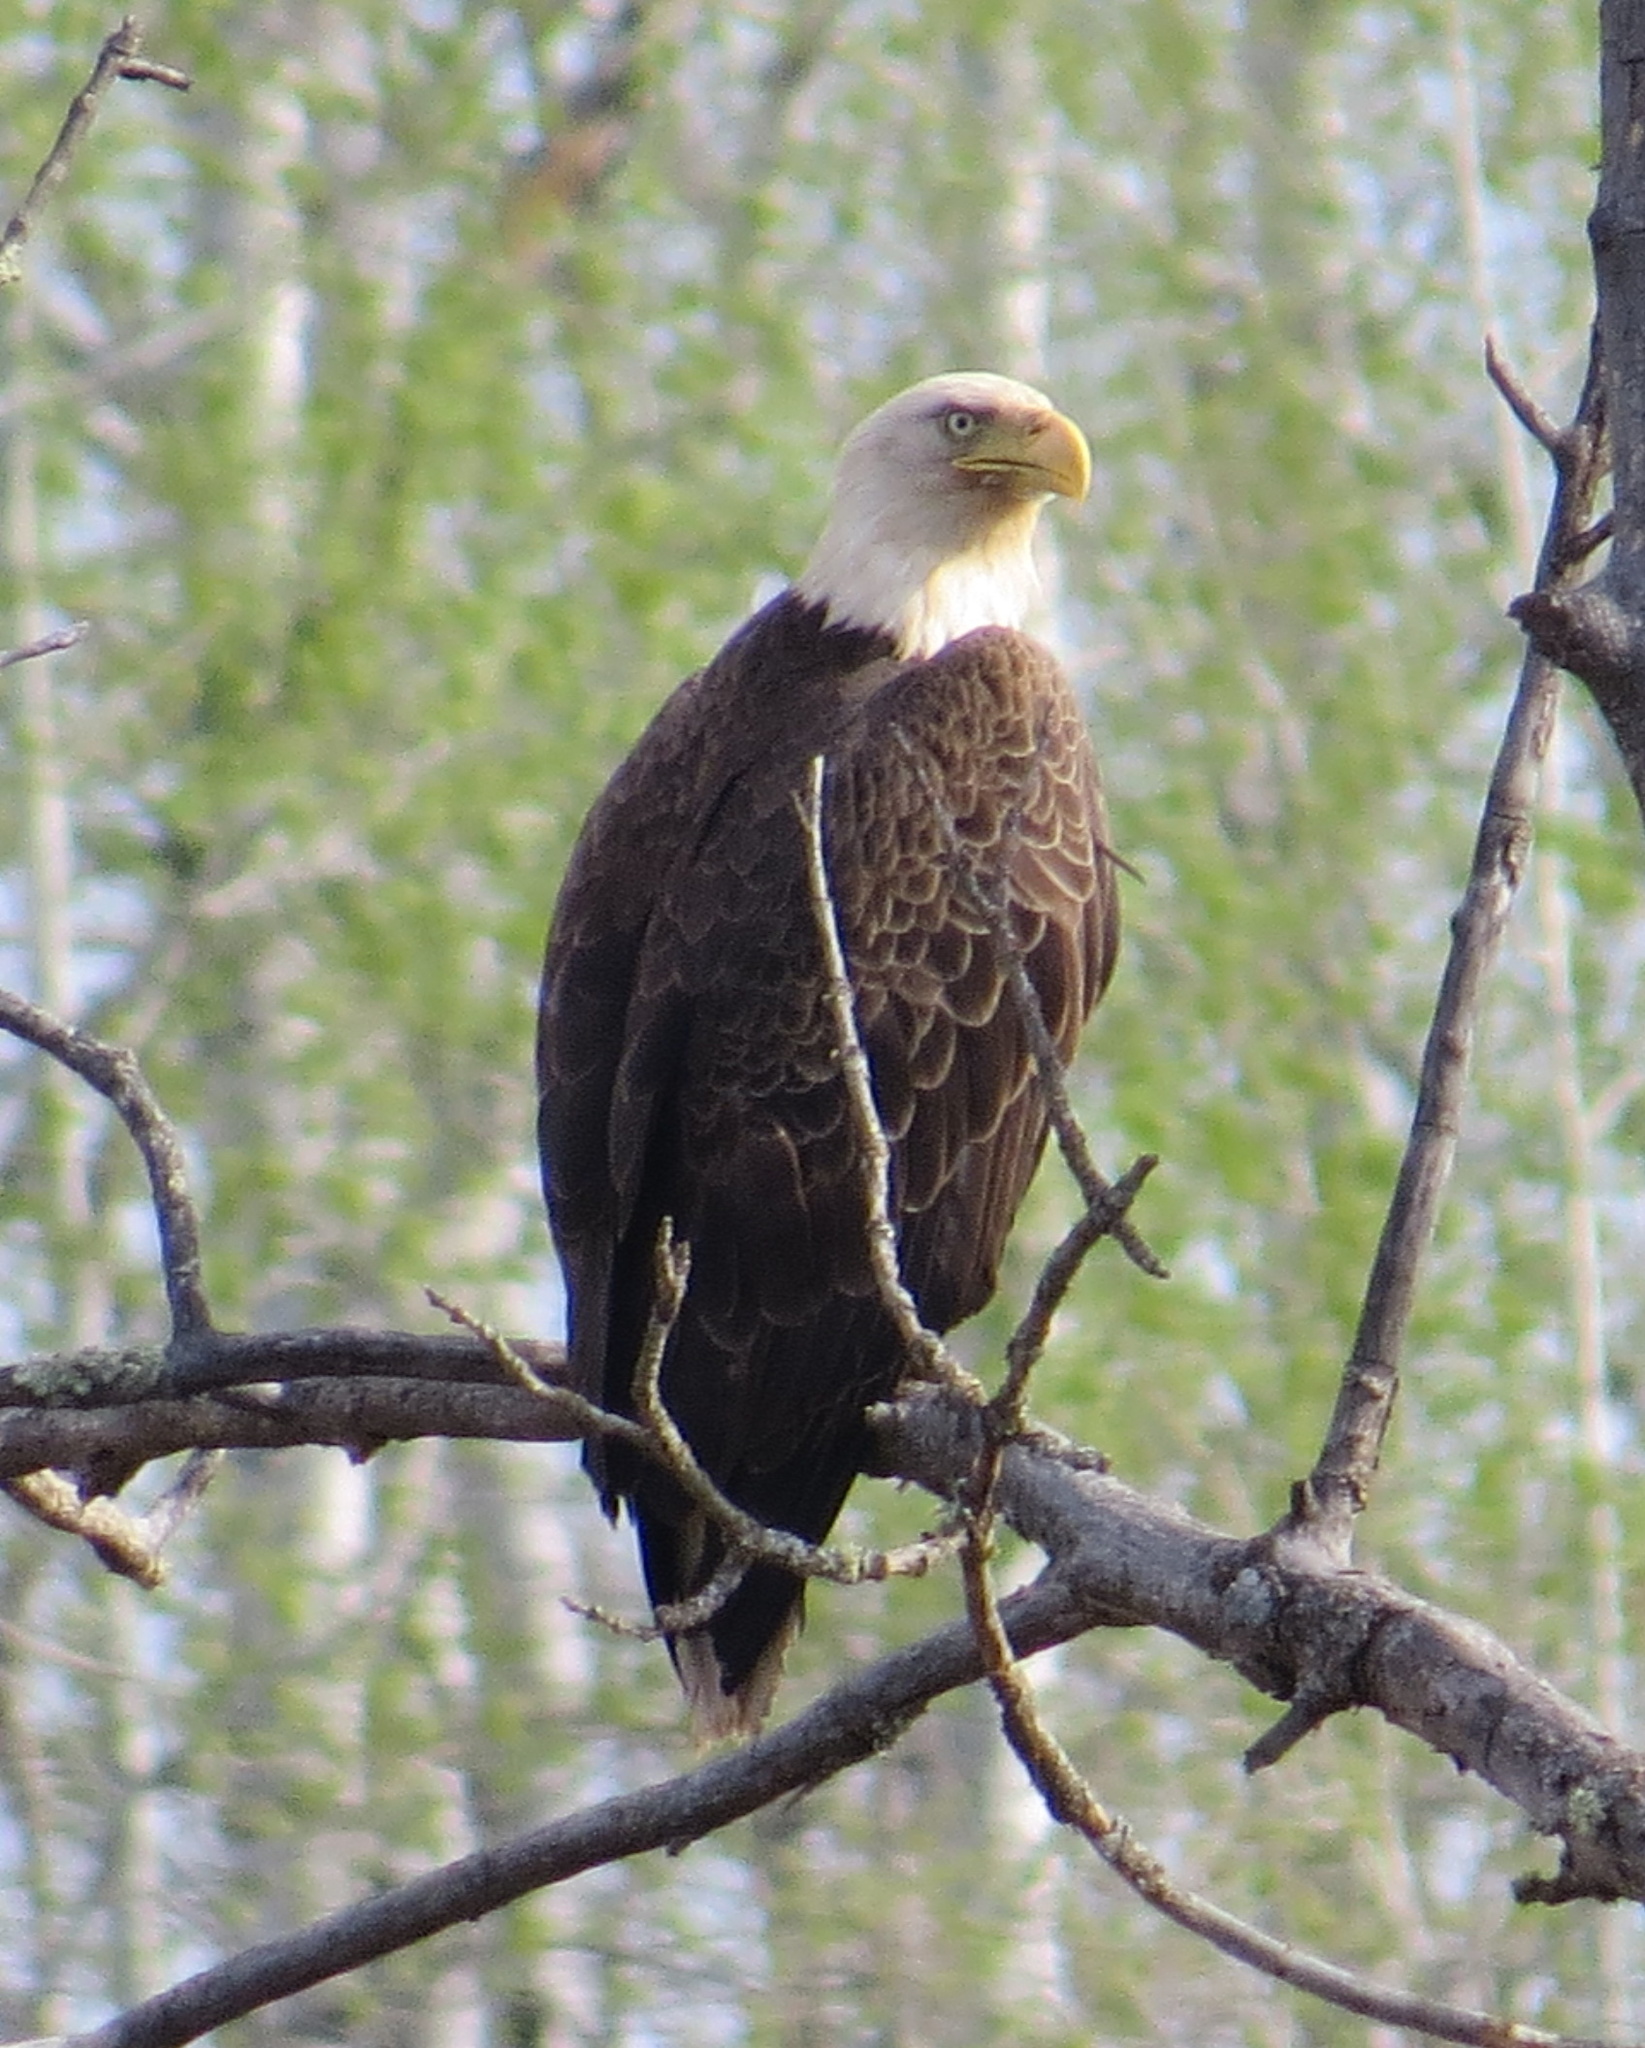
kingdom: Animalia
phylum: Chordata
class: Aves
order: Accipitriformes
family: Accipitridae
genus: Haliaeetus
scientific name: Haliaeetus leucocephalus
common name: Bald eagle
